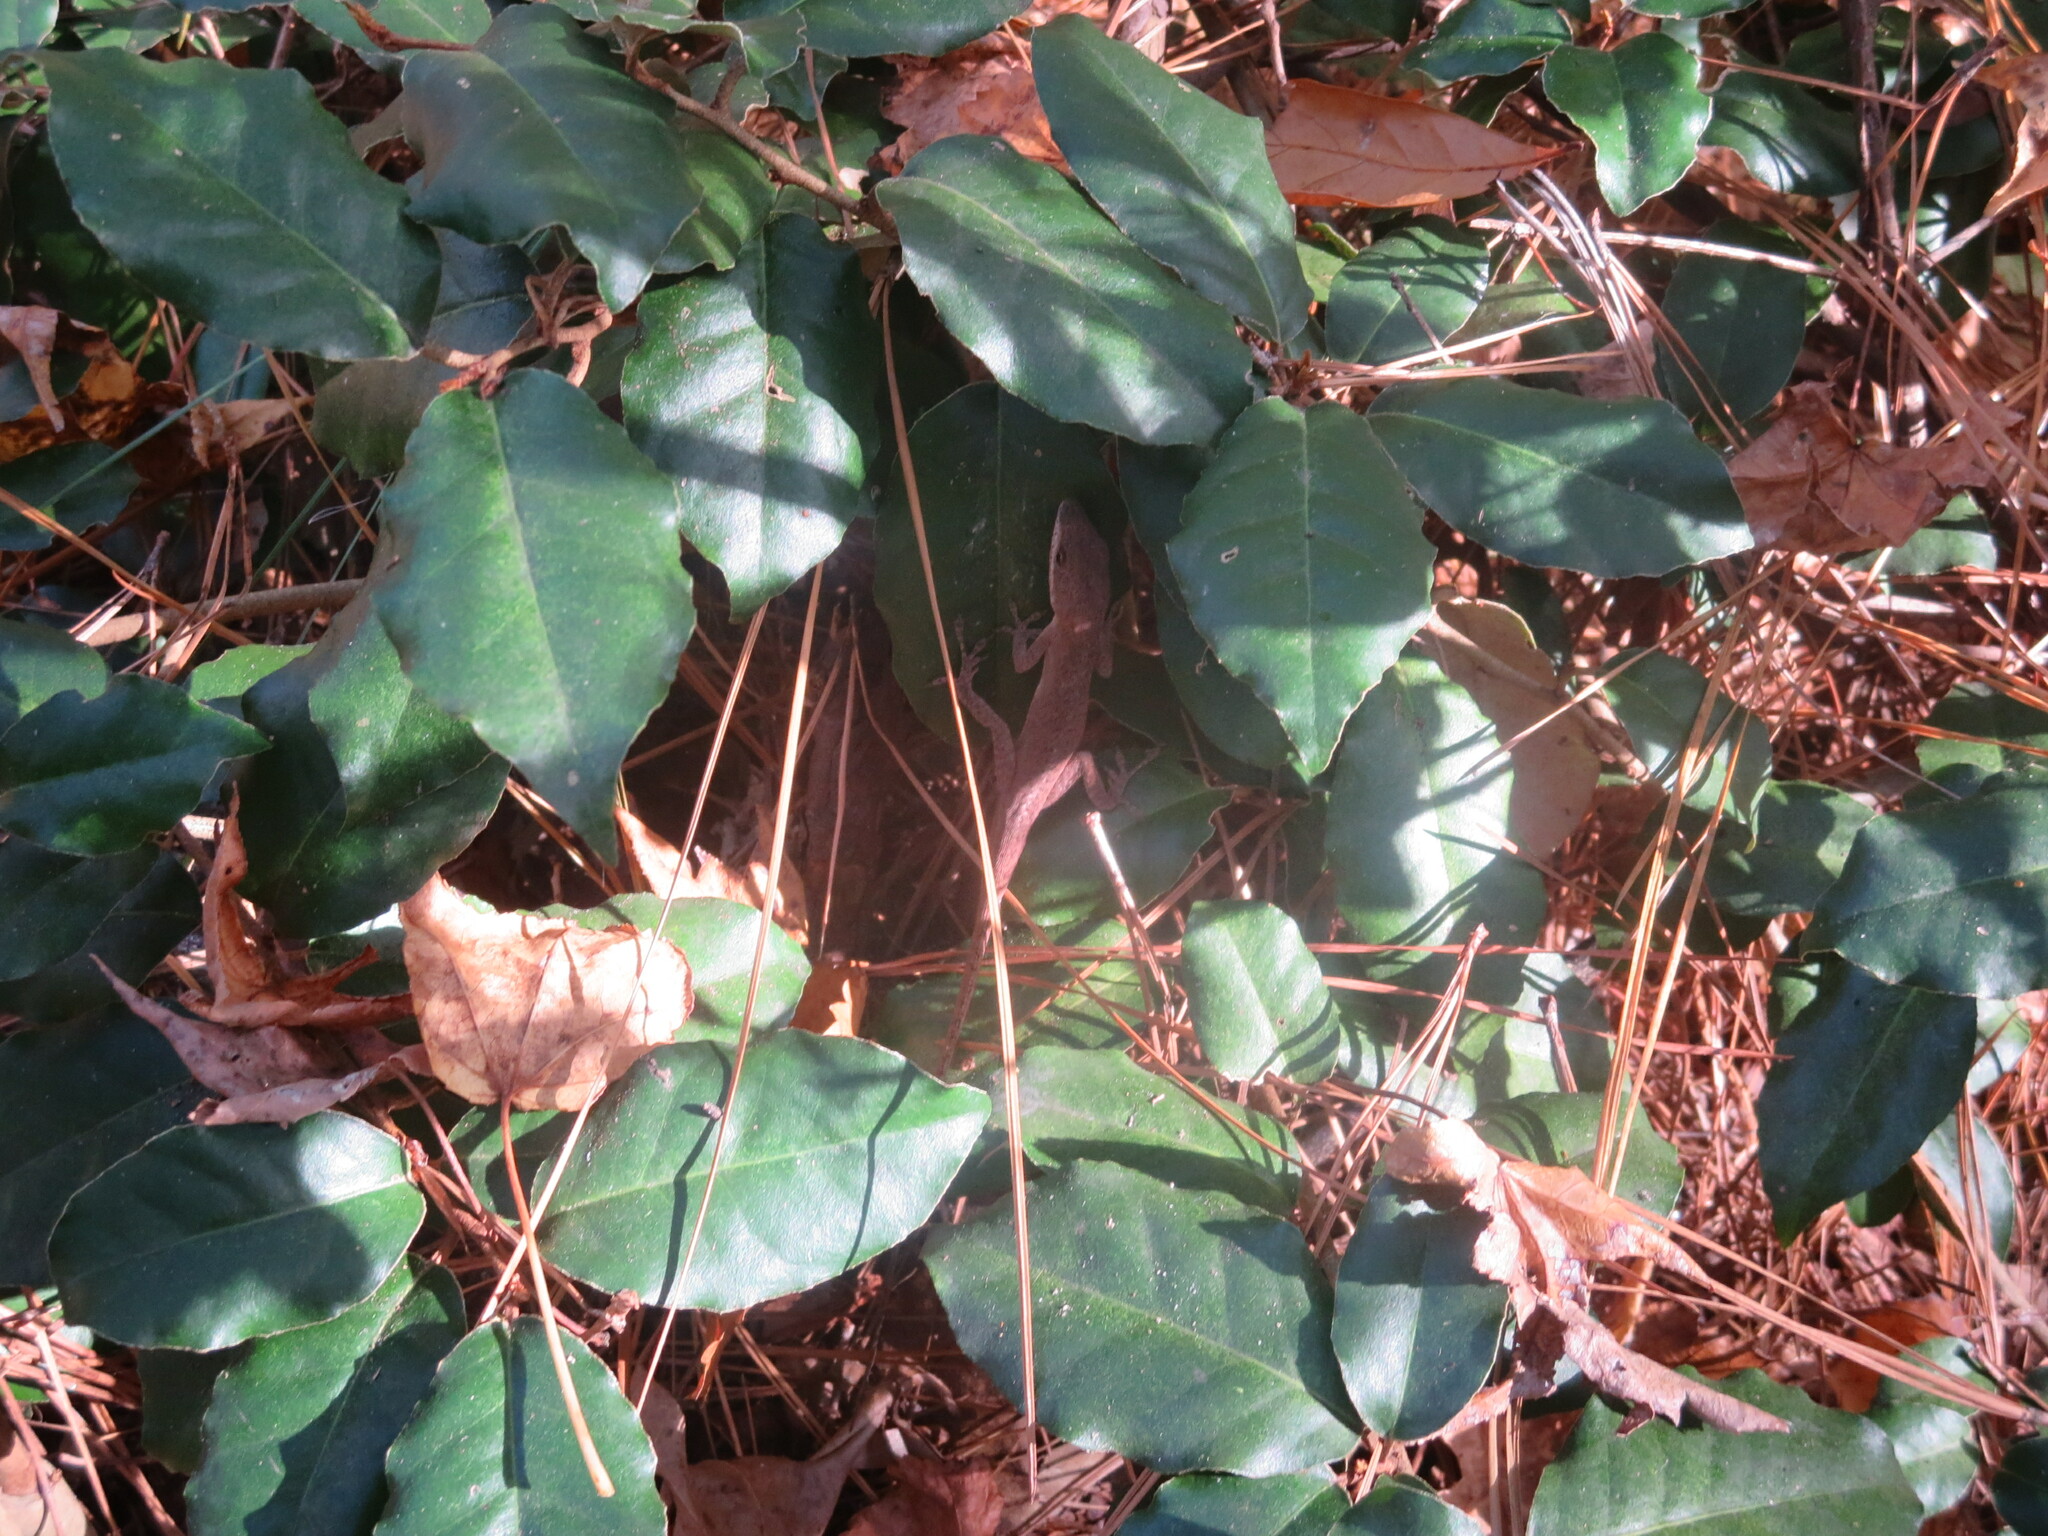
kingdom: Animalia
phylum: Chordata
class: Squamata
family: Dactyloidae
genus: Anolis
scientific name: Anolis carolinensis
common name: Green anole
